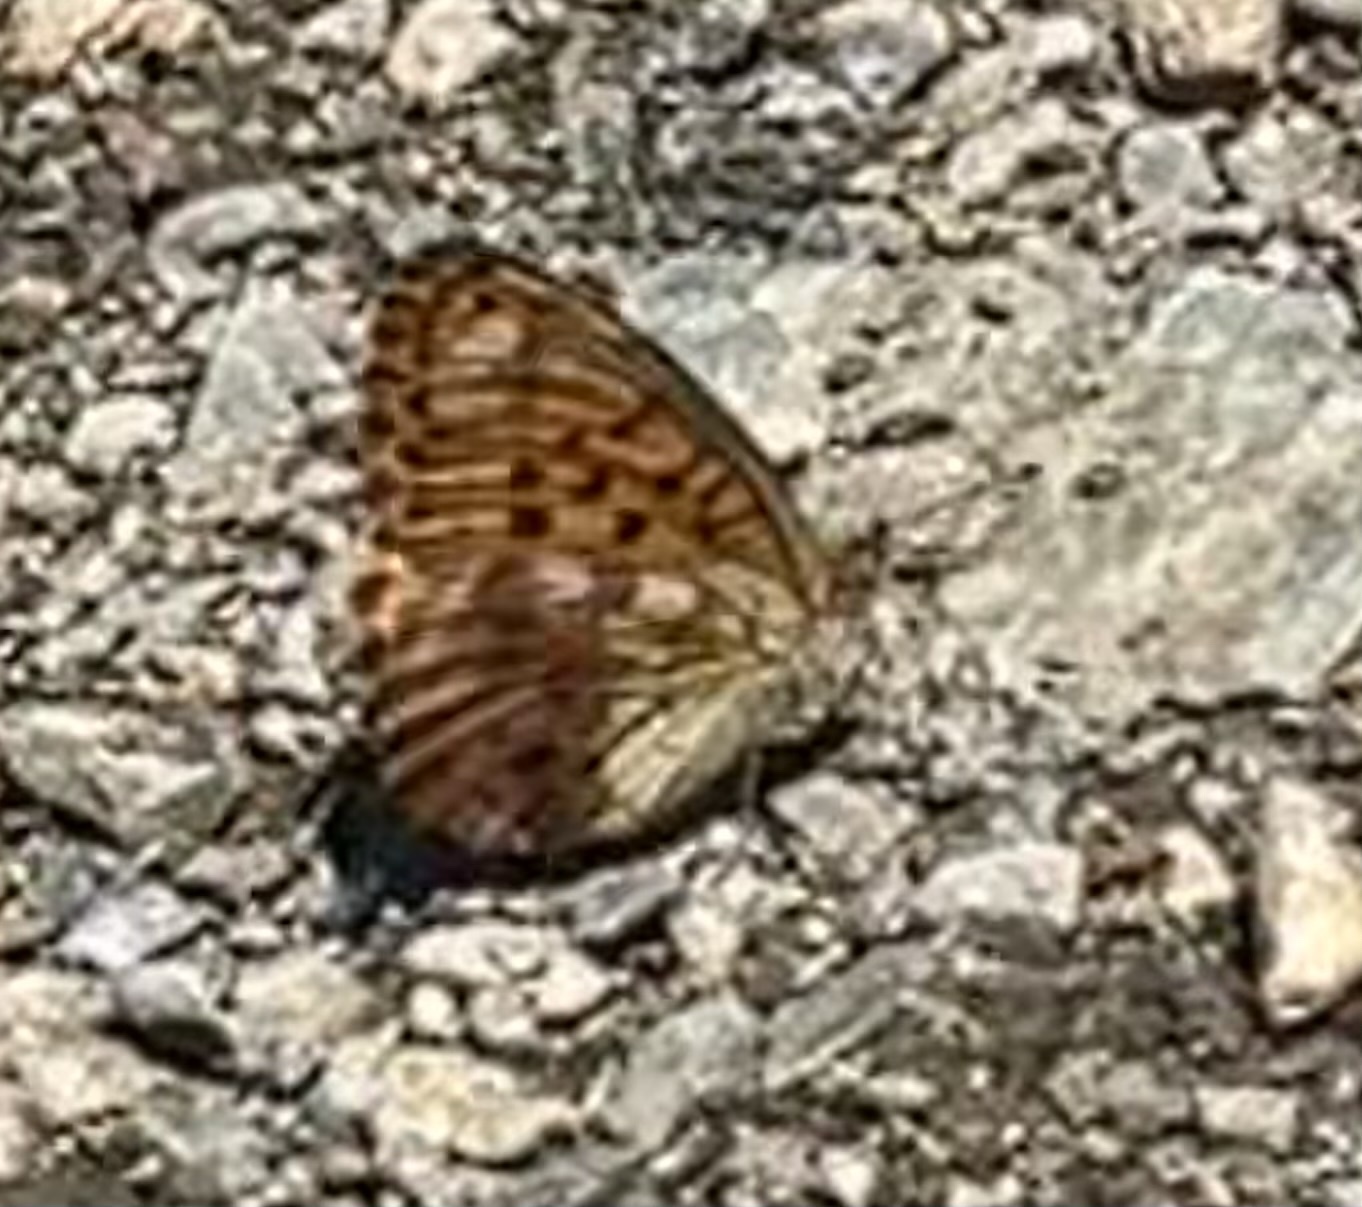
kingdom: Animalia
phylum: Arthropoda
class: Insecta
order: Lepidoptera
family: Nymphalidae
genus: Brenthis
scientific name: Brenthis daphne
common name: Marbled fritillary
